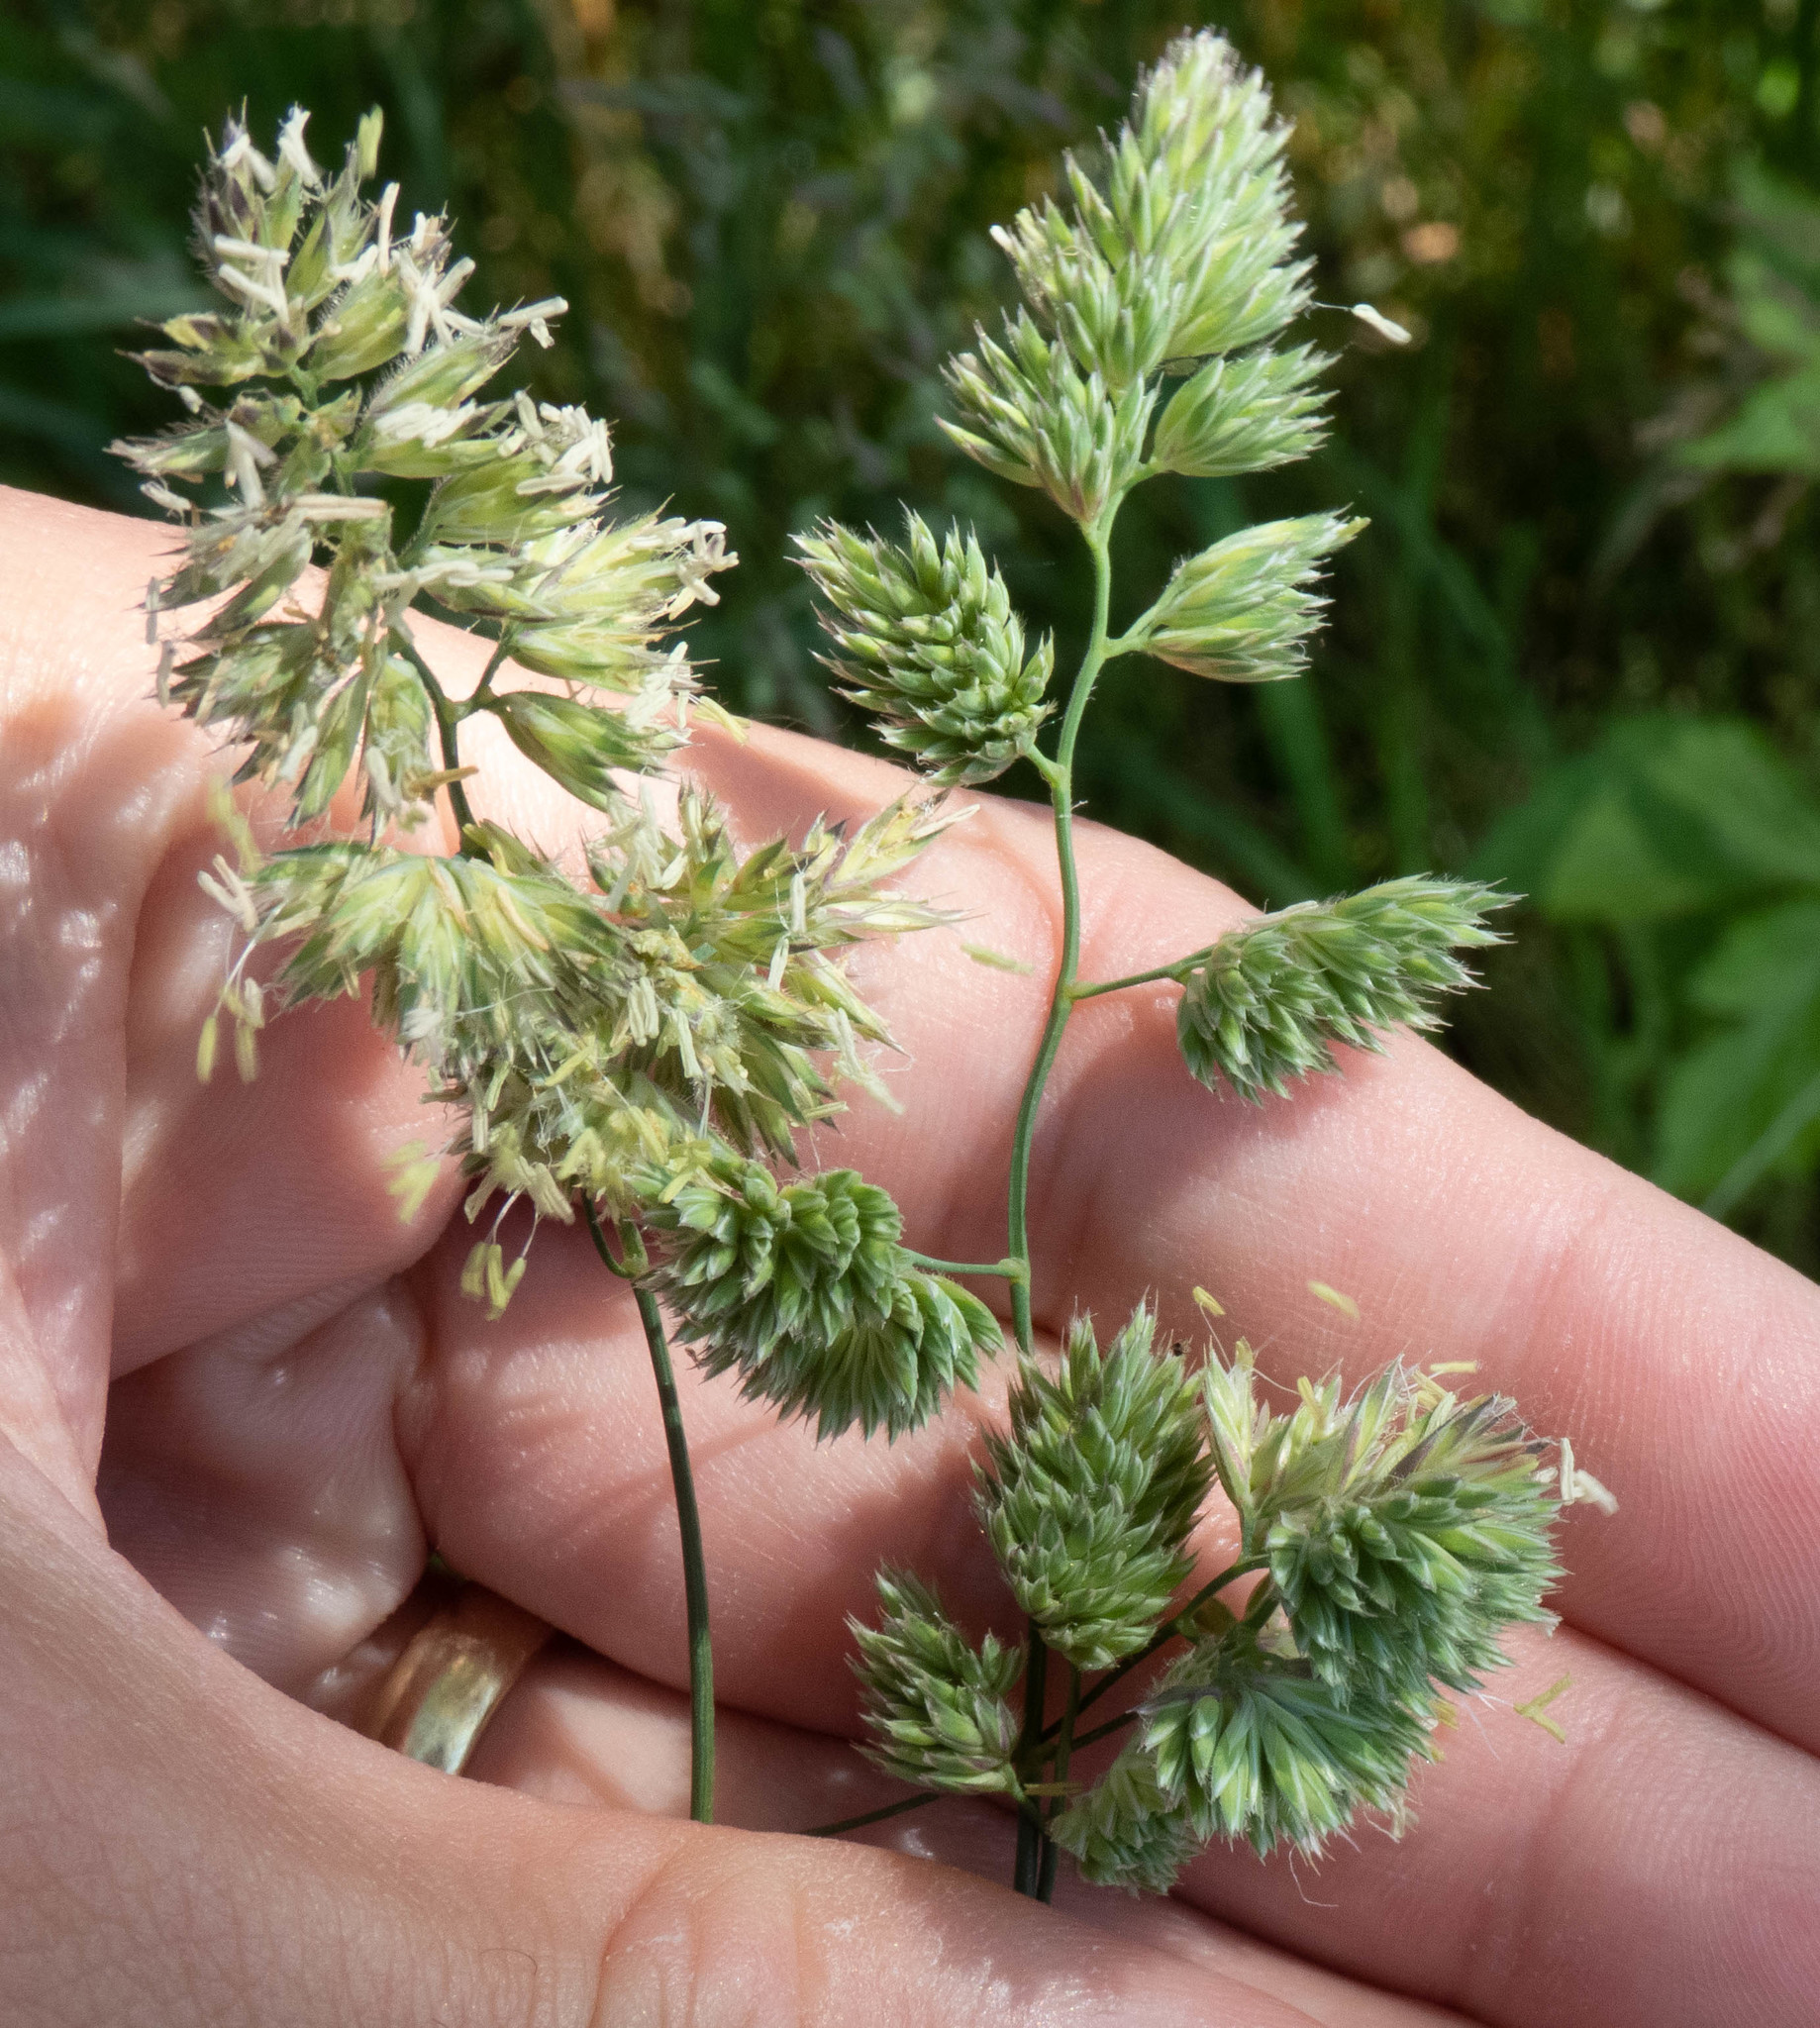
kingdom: Plantae
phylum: Tracheophyta
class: Liliopsida
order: Poales
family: Poaceae
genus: Dactylis
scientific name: Dactylis glomerata
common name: Orchardgrass
